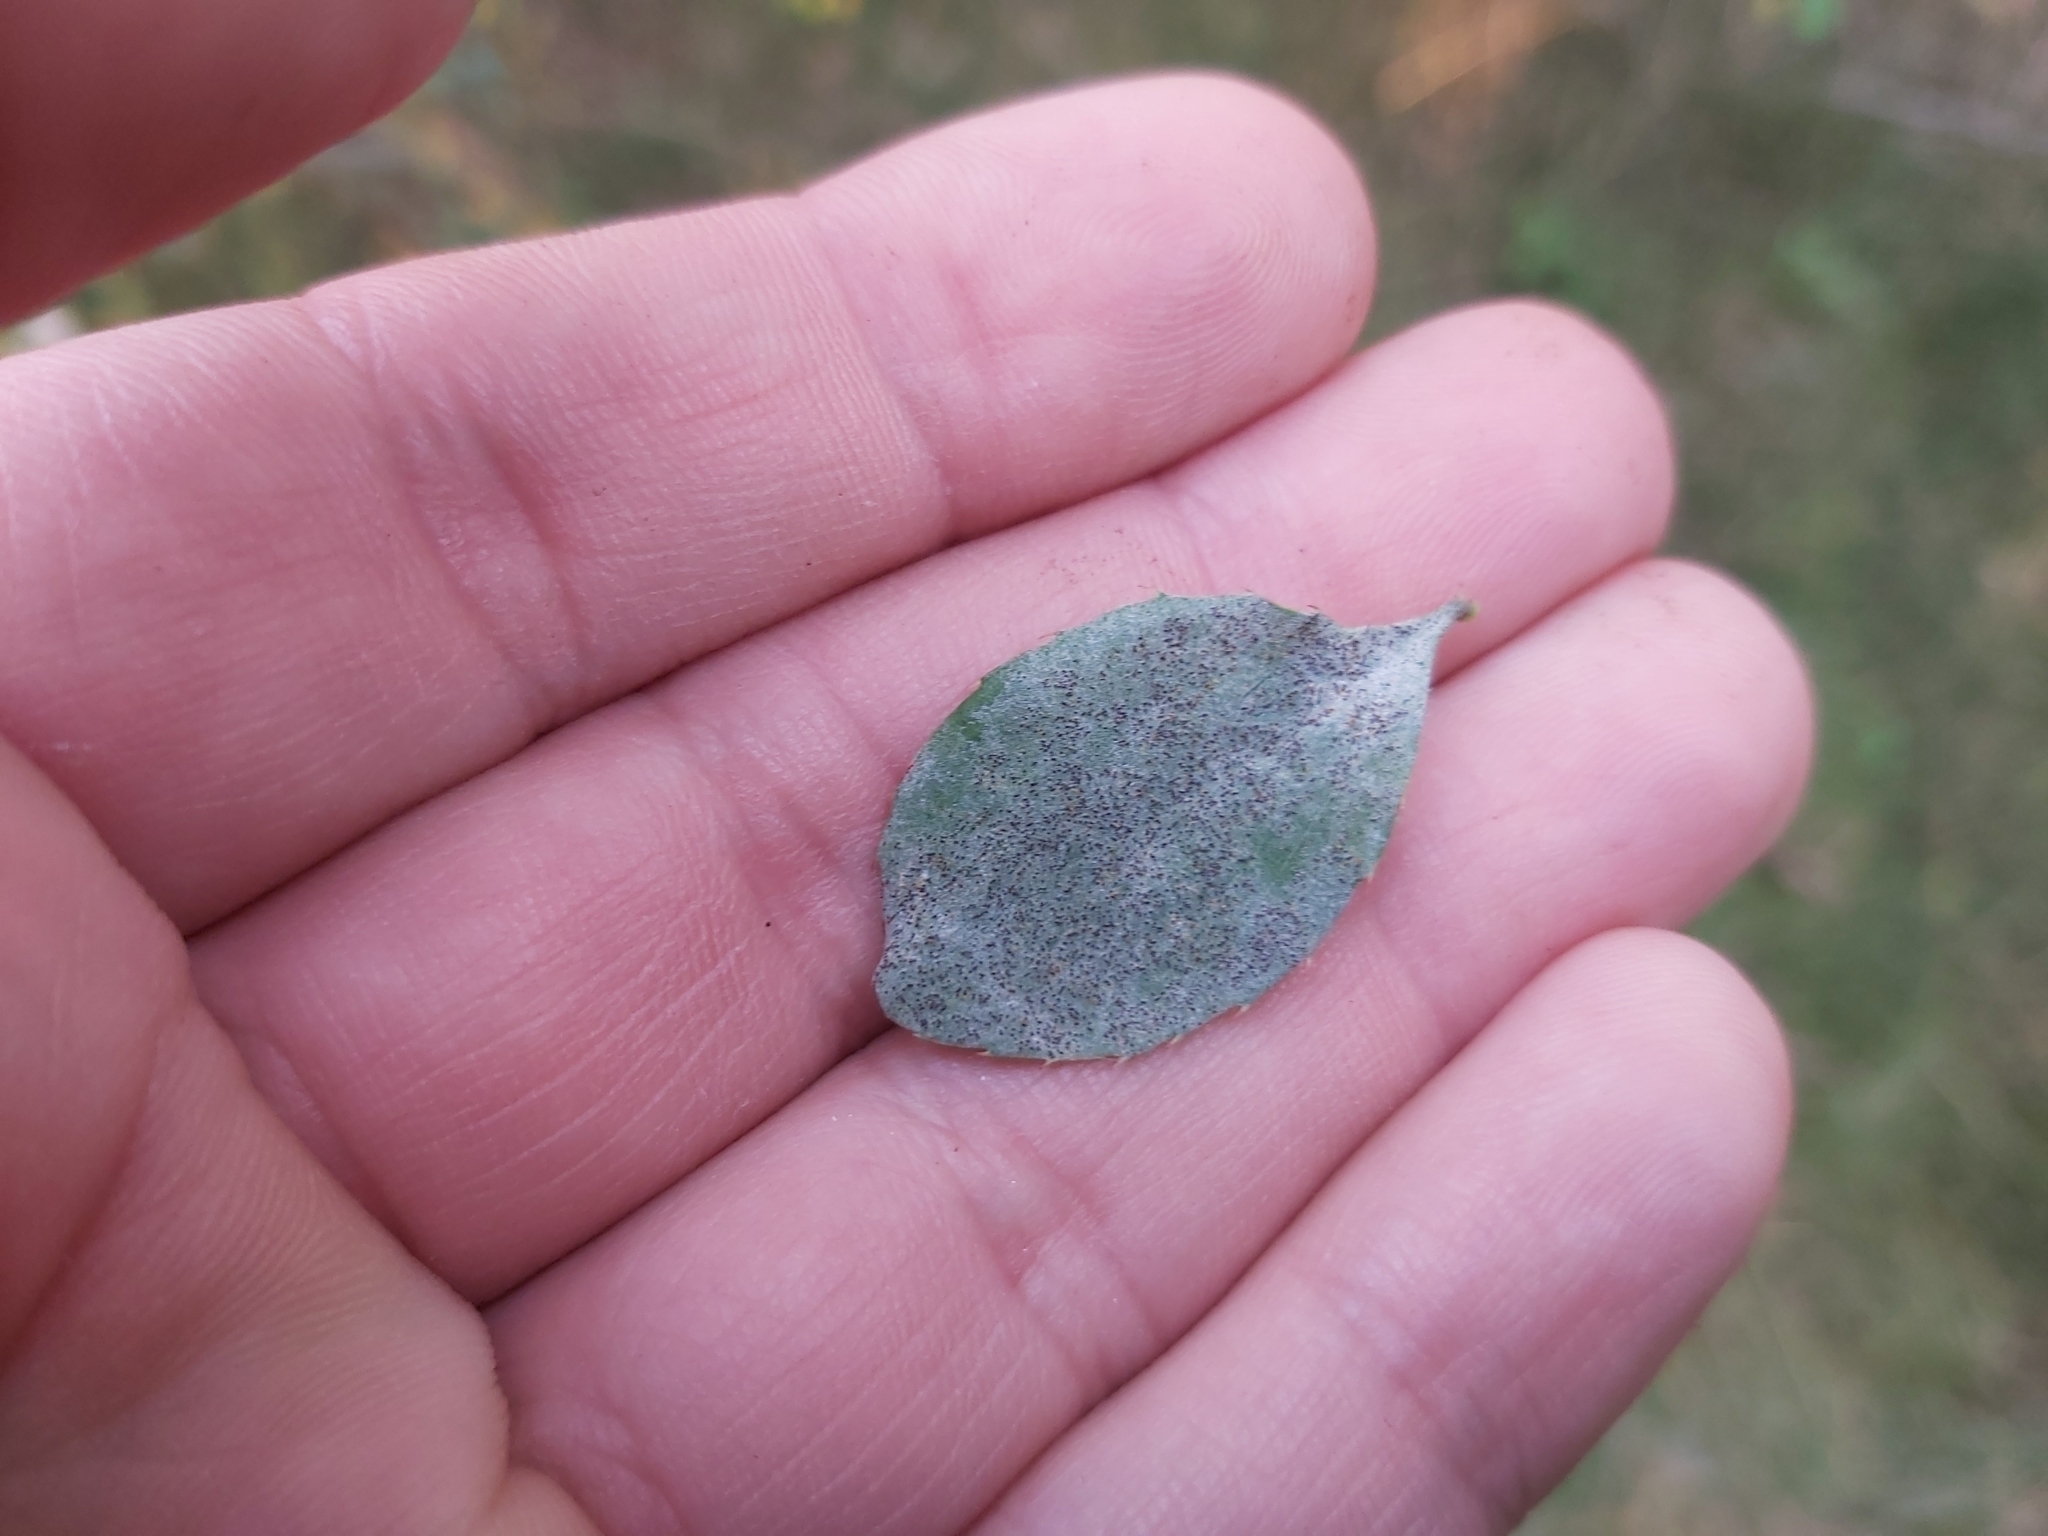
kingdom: Fungi
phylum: Ascomycota
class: Leotiomycetes
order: Helotiales
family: Erysiphaceae
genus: Erysiphe
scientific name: Erysiphe berberidis
